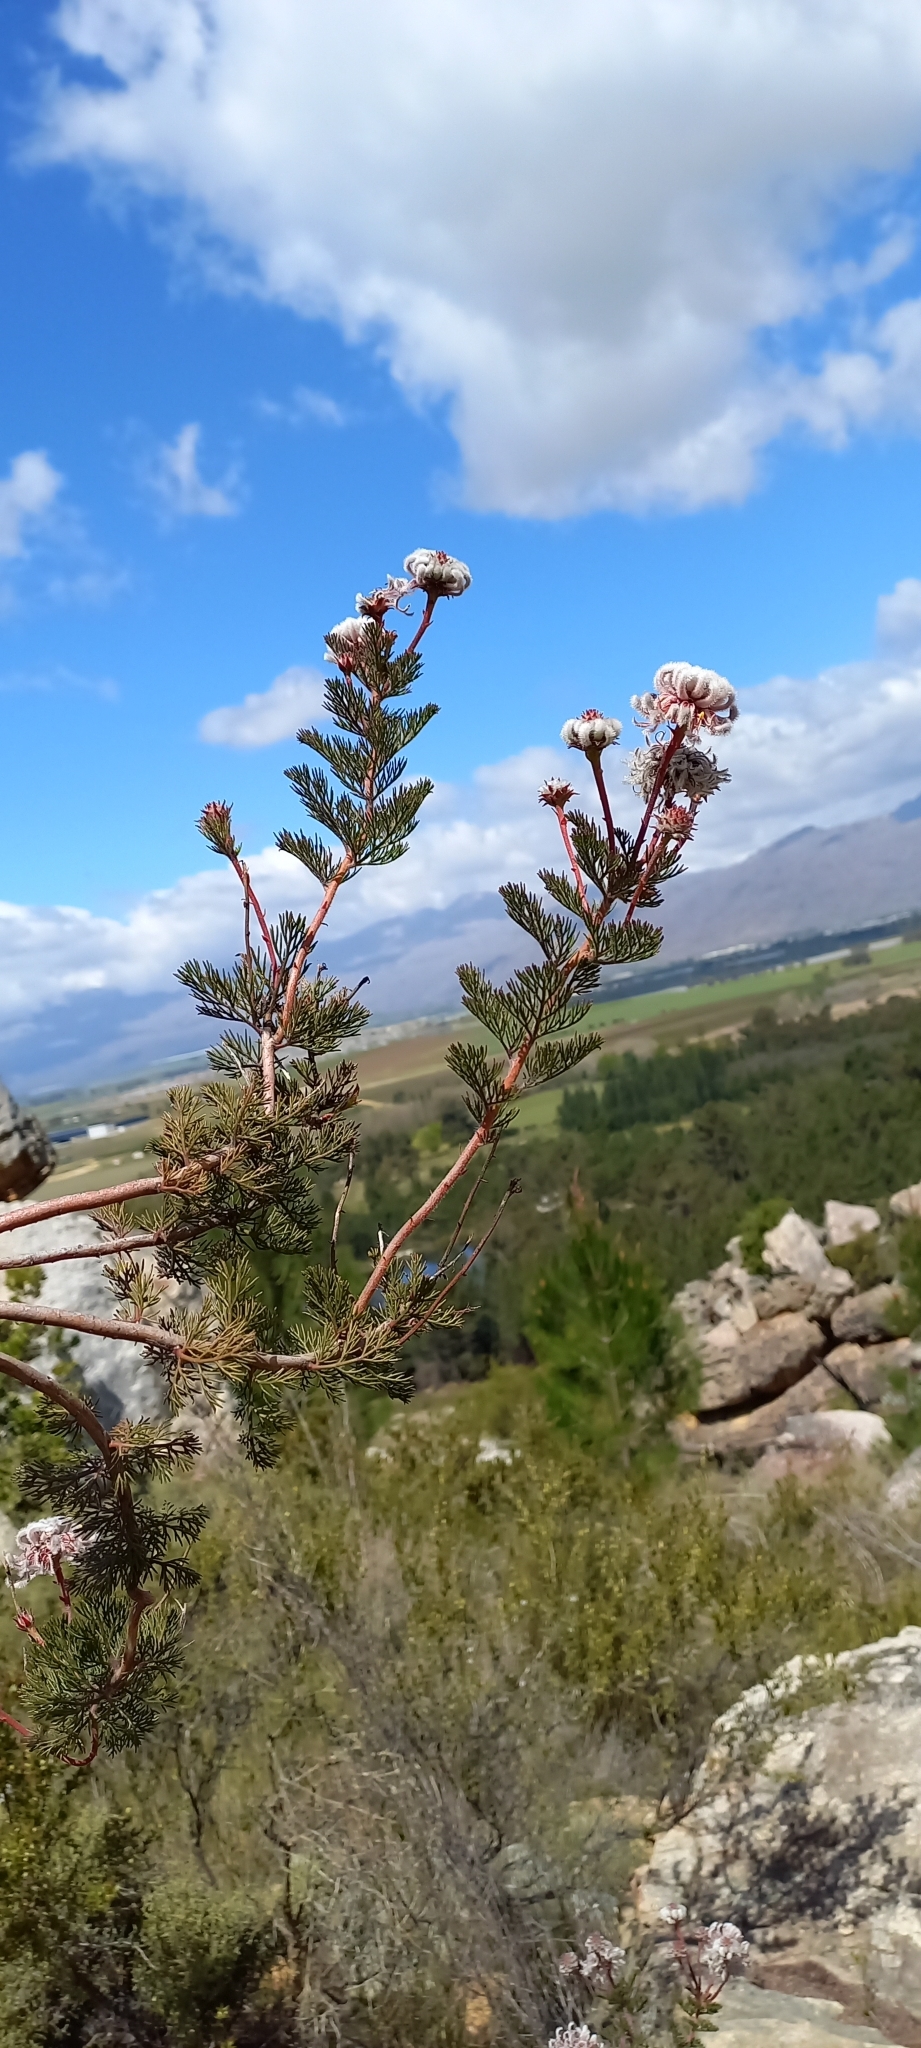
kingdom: Plantae
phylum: Tracheophyta
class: Magnoliopsida
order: Proteales
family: Proteaceae
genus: Serruria
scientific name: Serruria pedunculata
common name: Fan-leaf spiderhead
